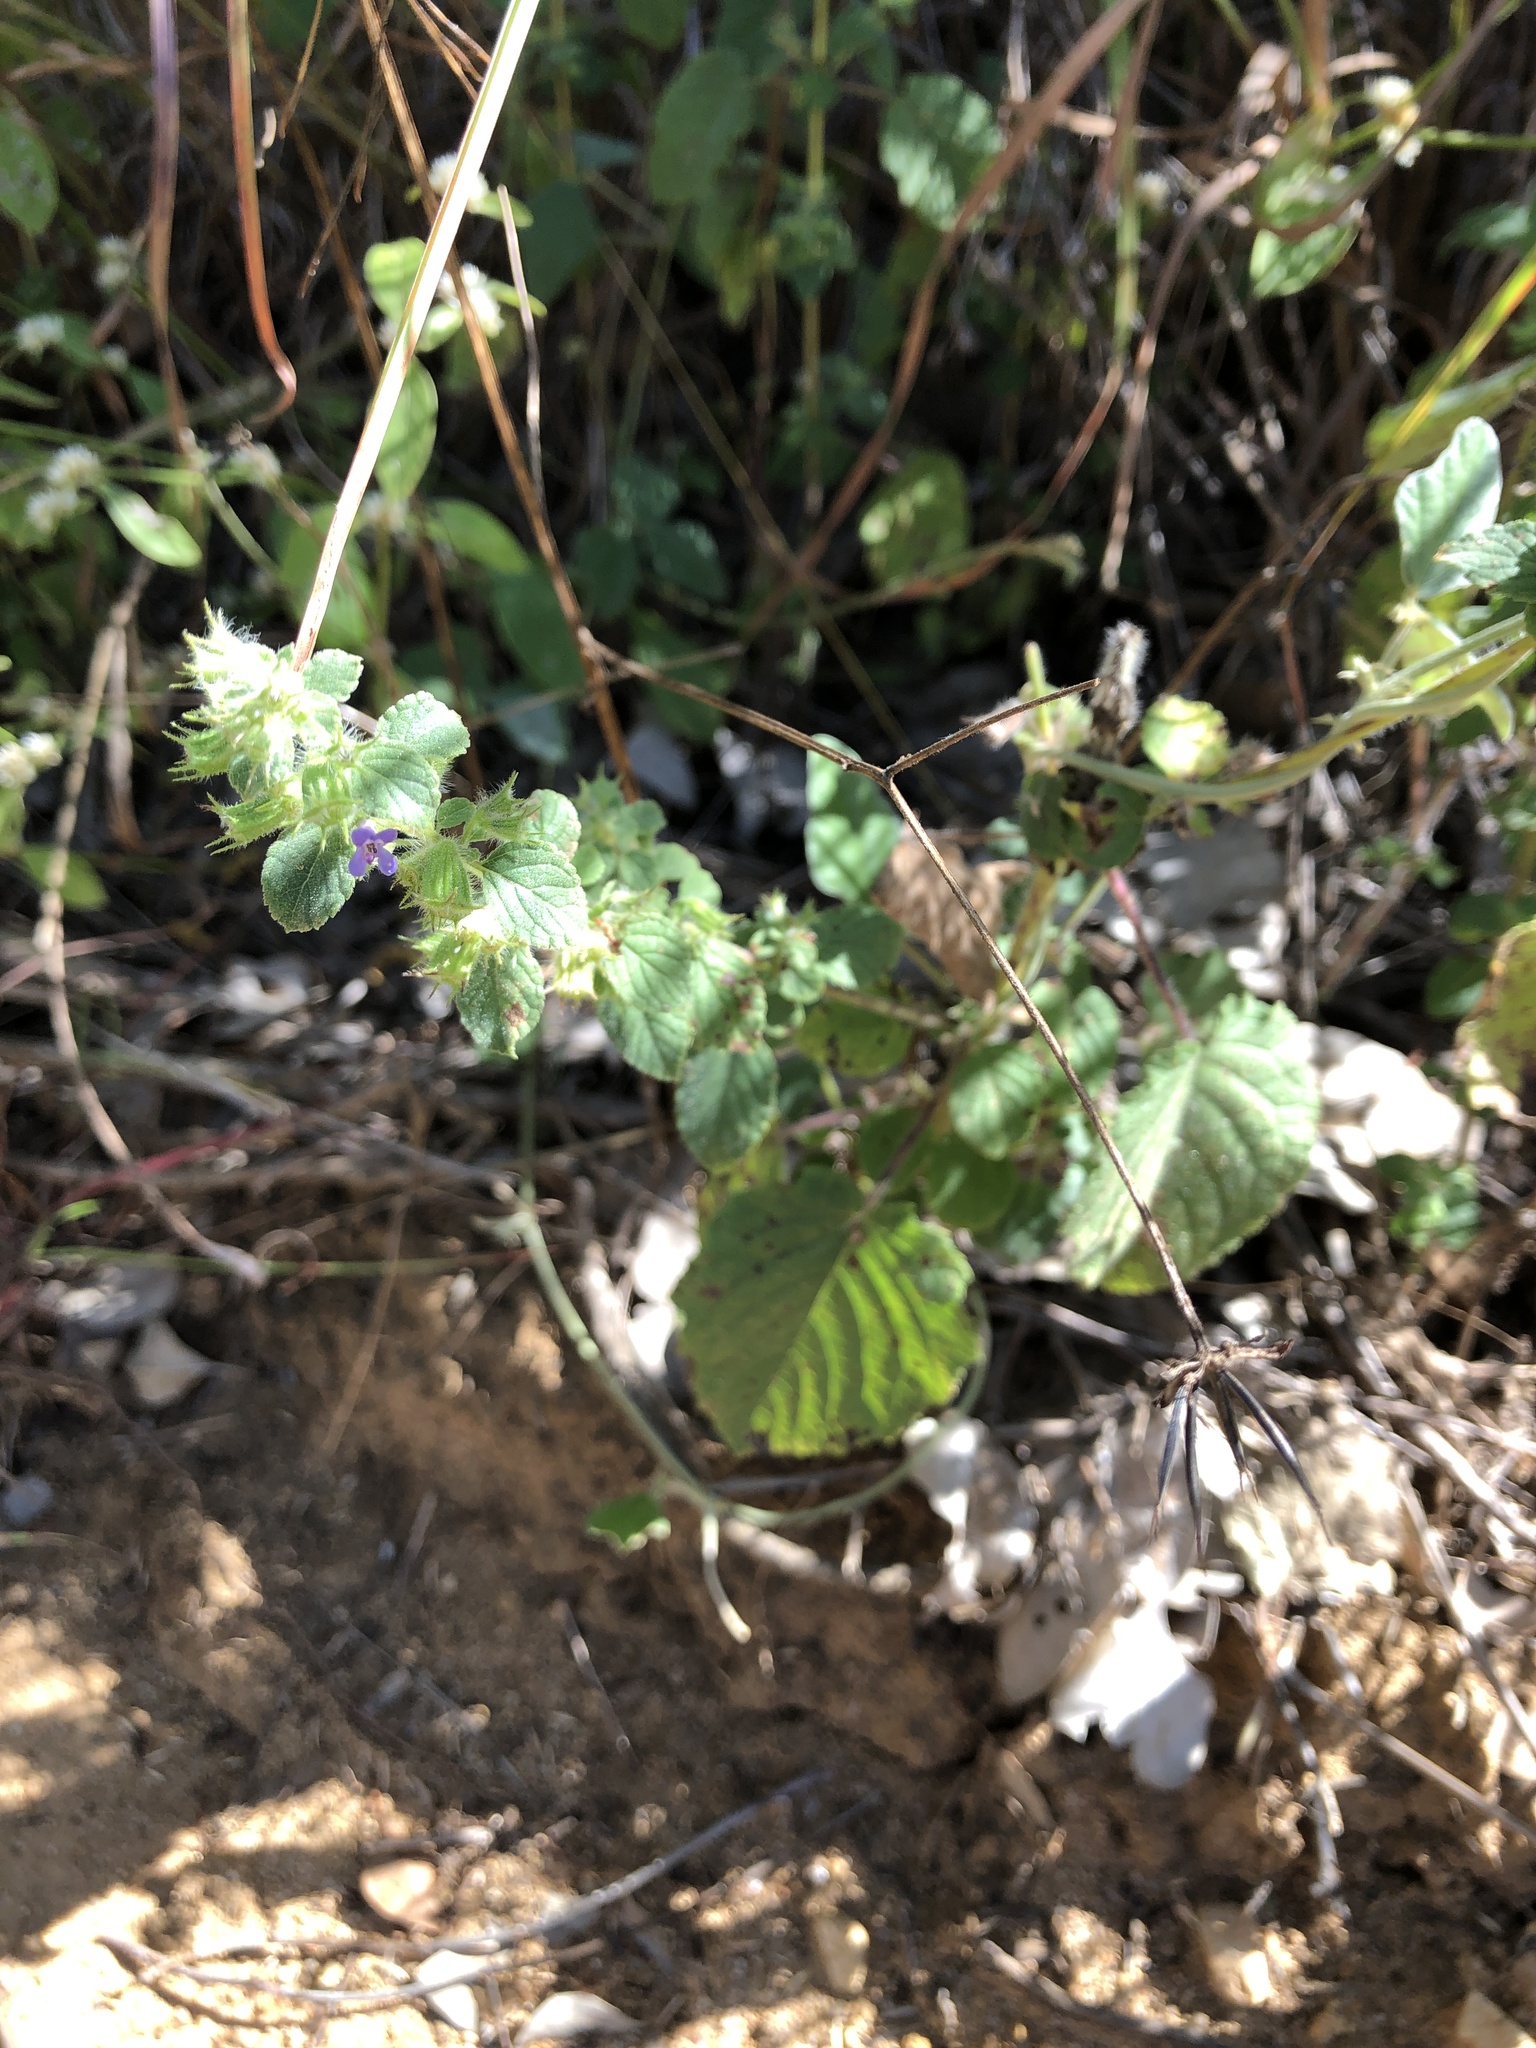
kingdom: Plantae
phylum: Tracheophyta
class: Magnoliopsida
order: Lamiales
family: Lamiaceae
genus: Mesosphaerum
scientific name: Mesosphaerum suaveolens
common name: Pignut
